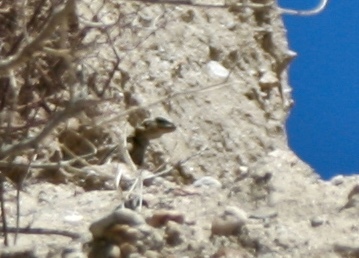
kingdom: Animalia
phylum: Chordata
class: Squamata
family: Iguanidae
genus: Sauromalus
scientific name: Sauromalus ater
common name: Northern chuckwalla
